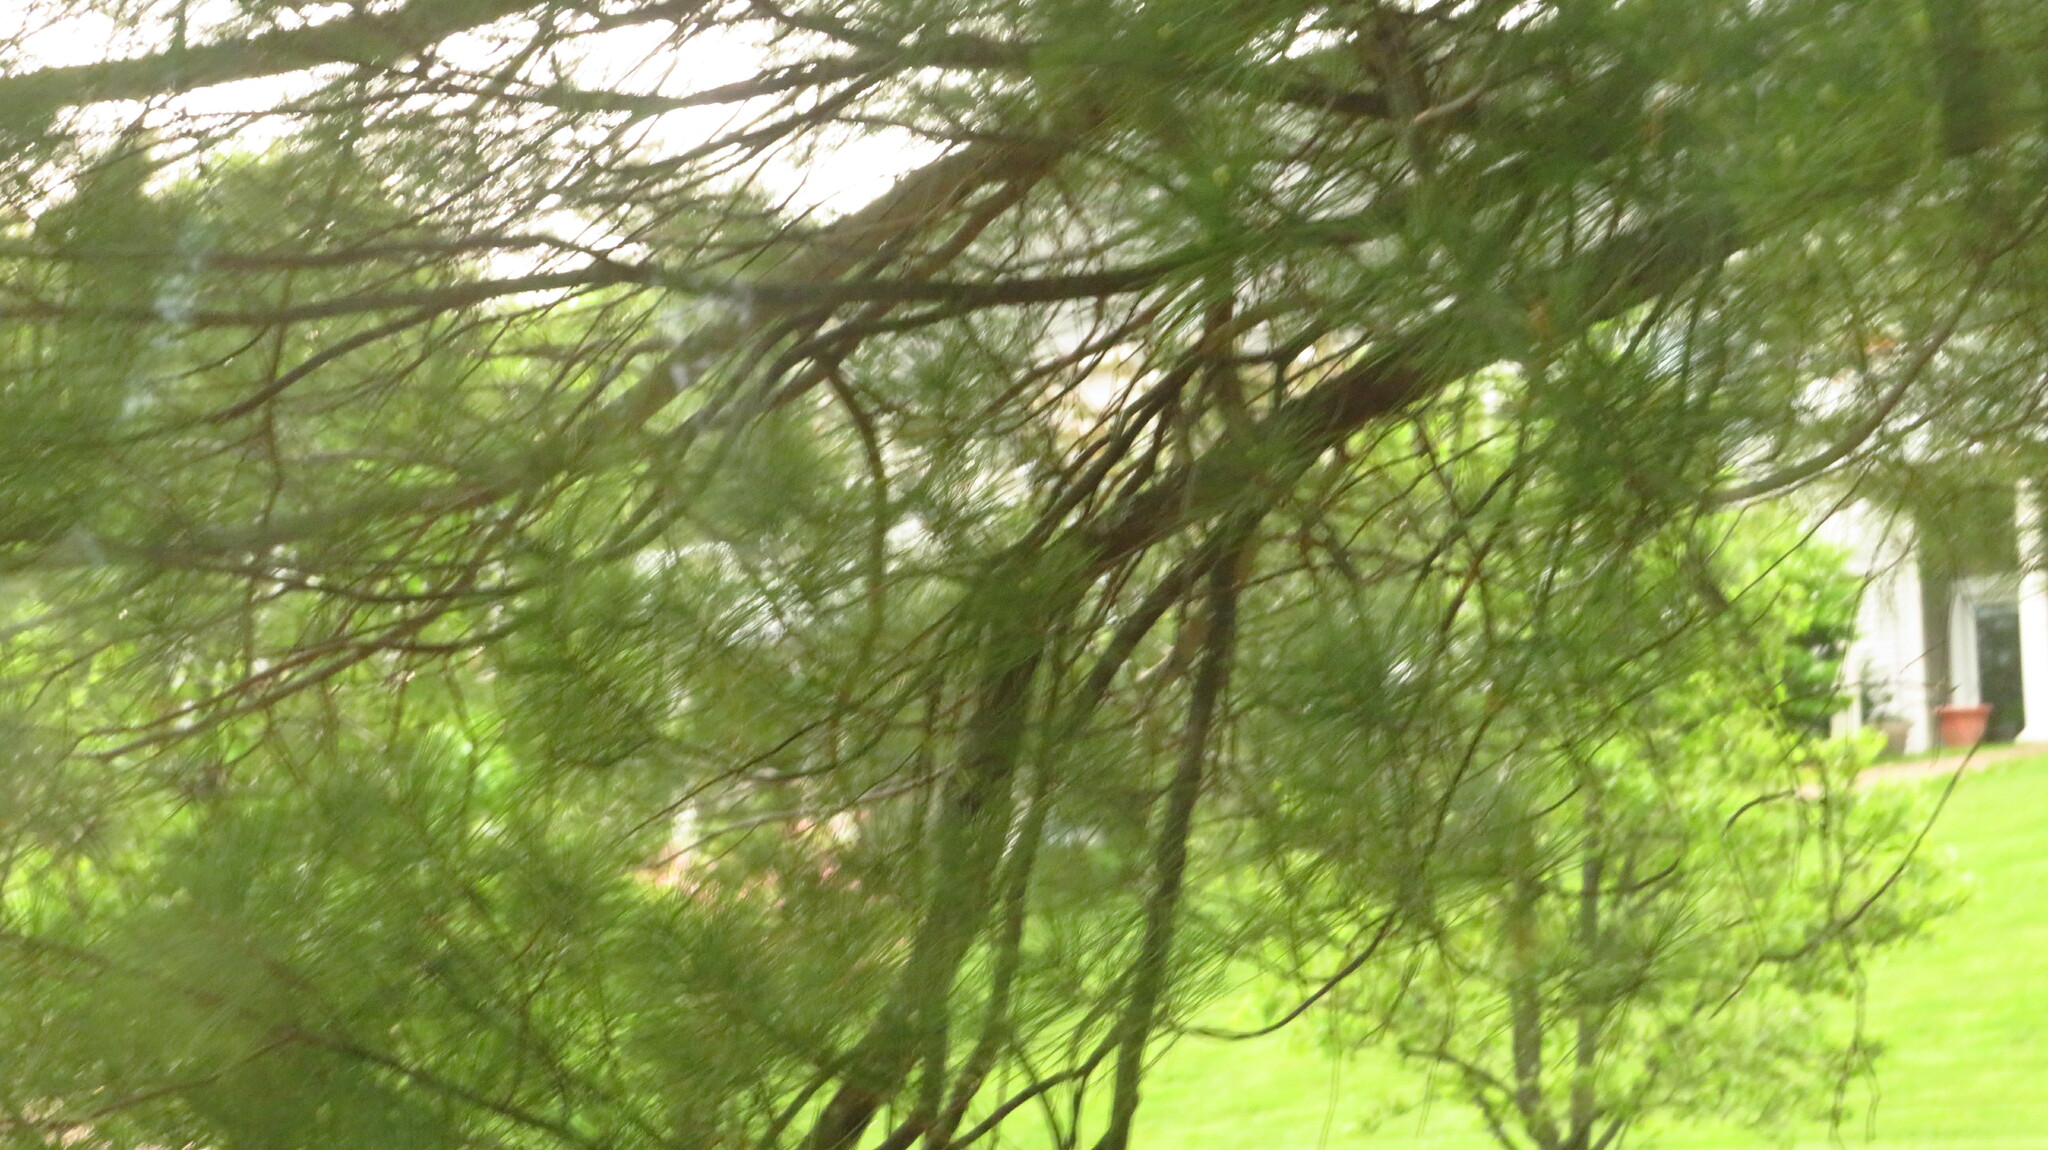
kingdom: Plantae
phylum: Tracheophyta
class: Pinopsida
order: Pinales
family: Pinaceae
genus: Pinus
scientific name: Pinus strobus
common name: Weymouth pine
